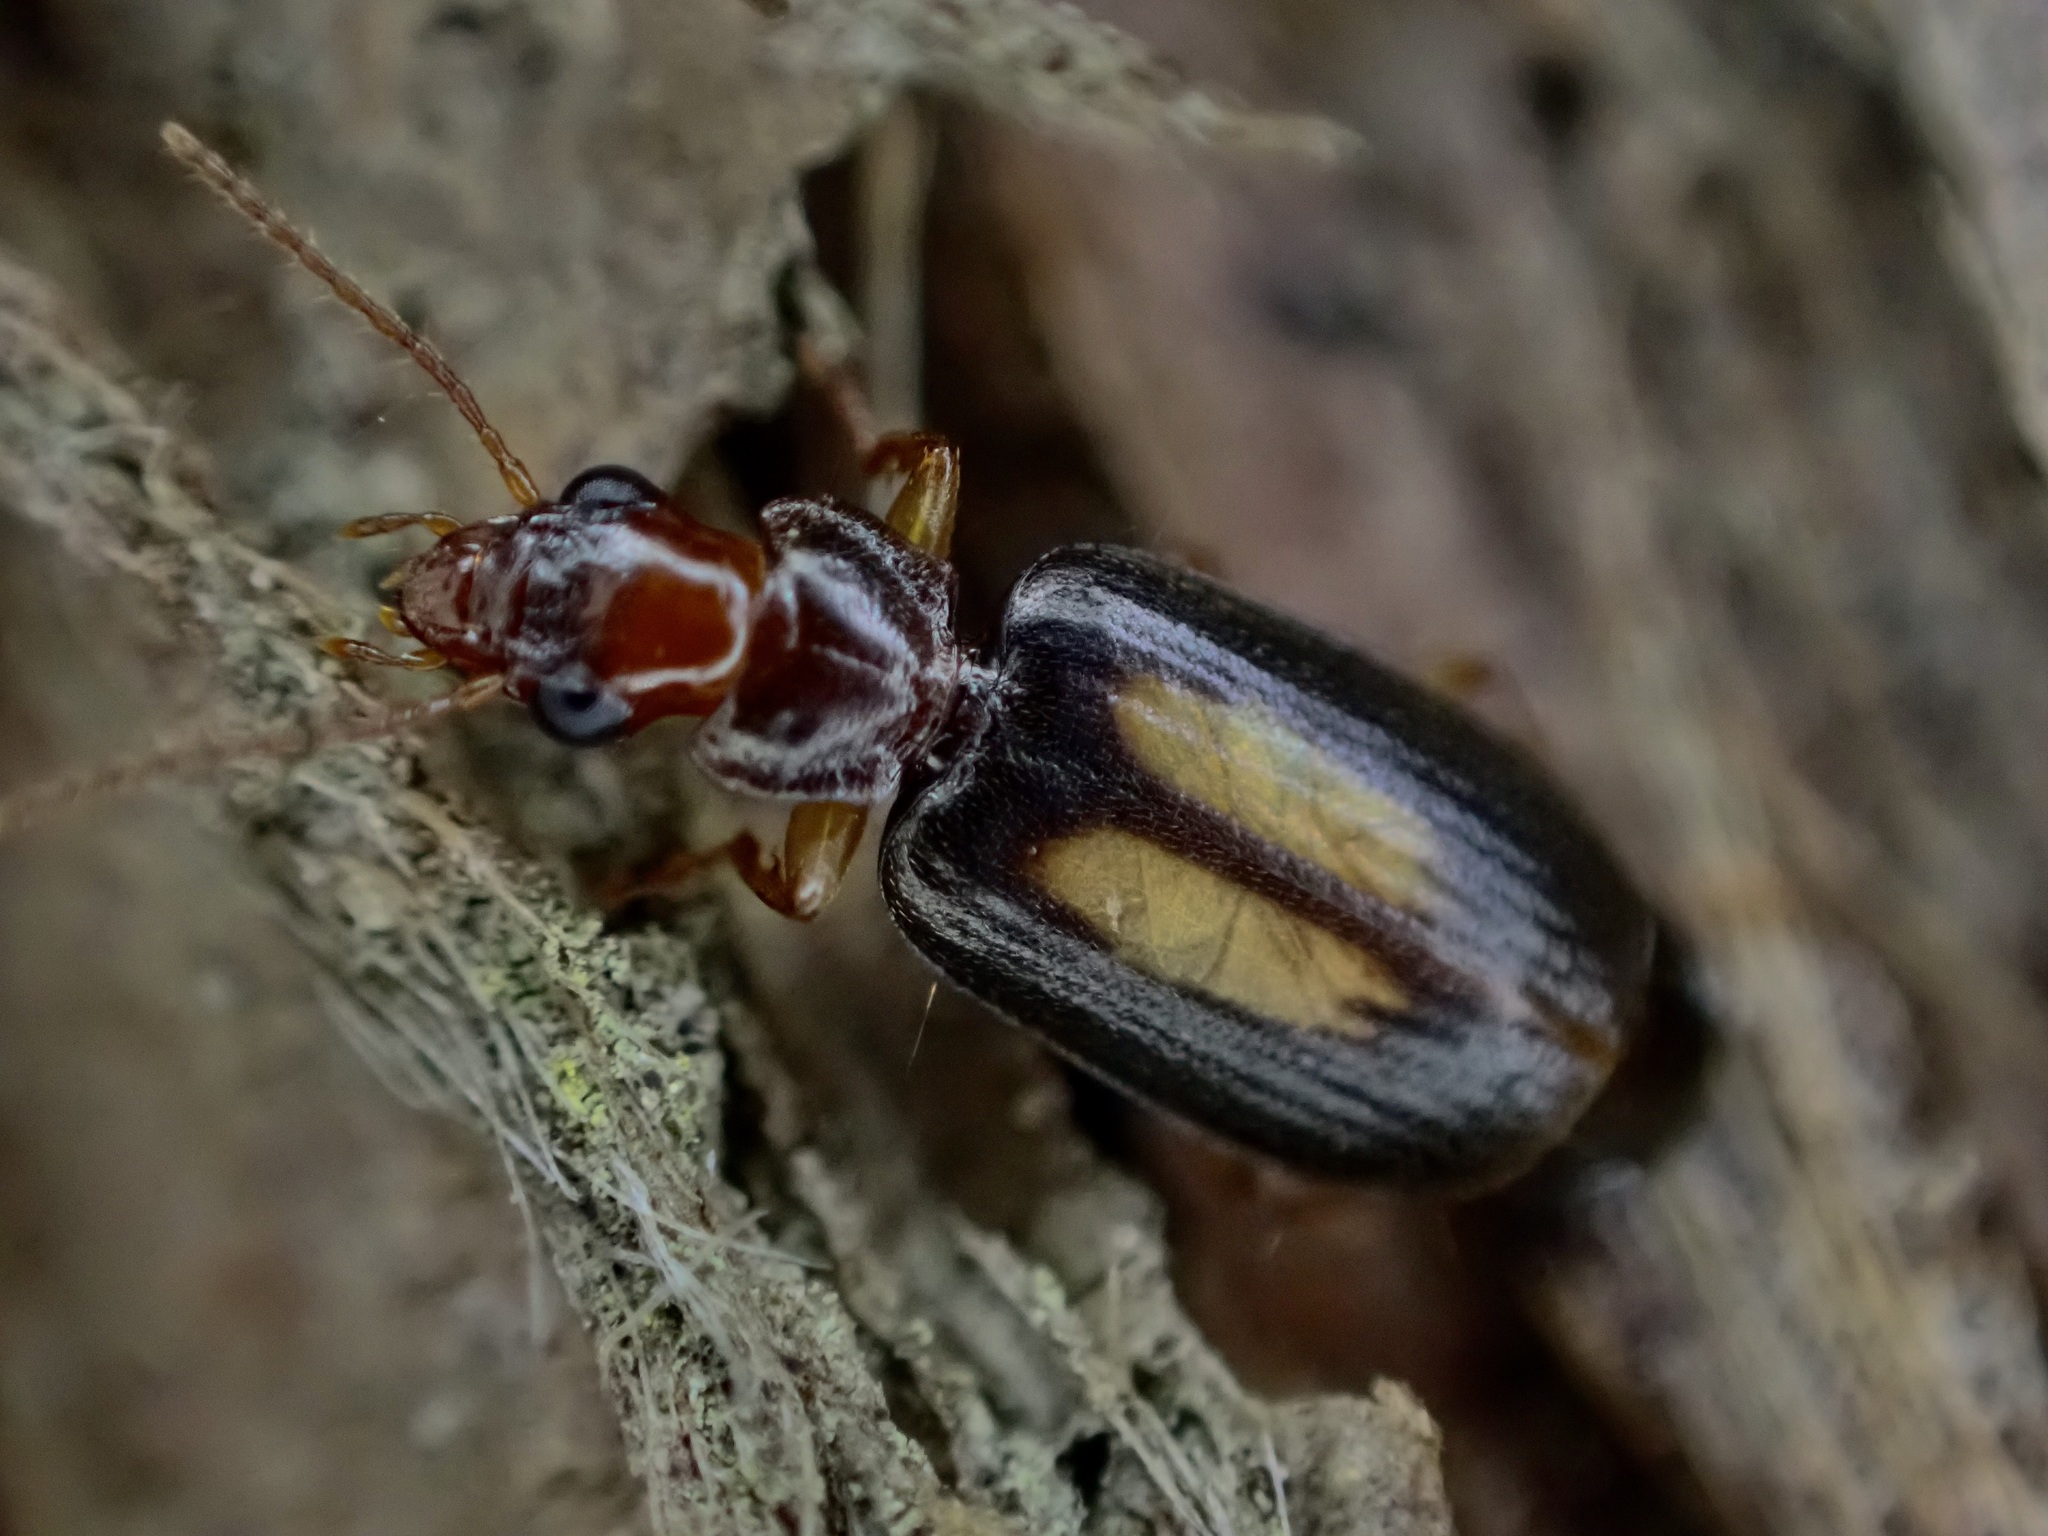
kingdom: Animalia
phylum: Arthropoda
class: Insecta
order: Coleoptera
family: Carabidae
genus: Agonocheila
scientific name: Agonocheila antipodum
